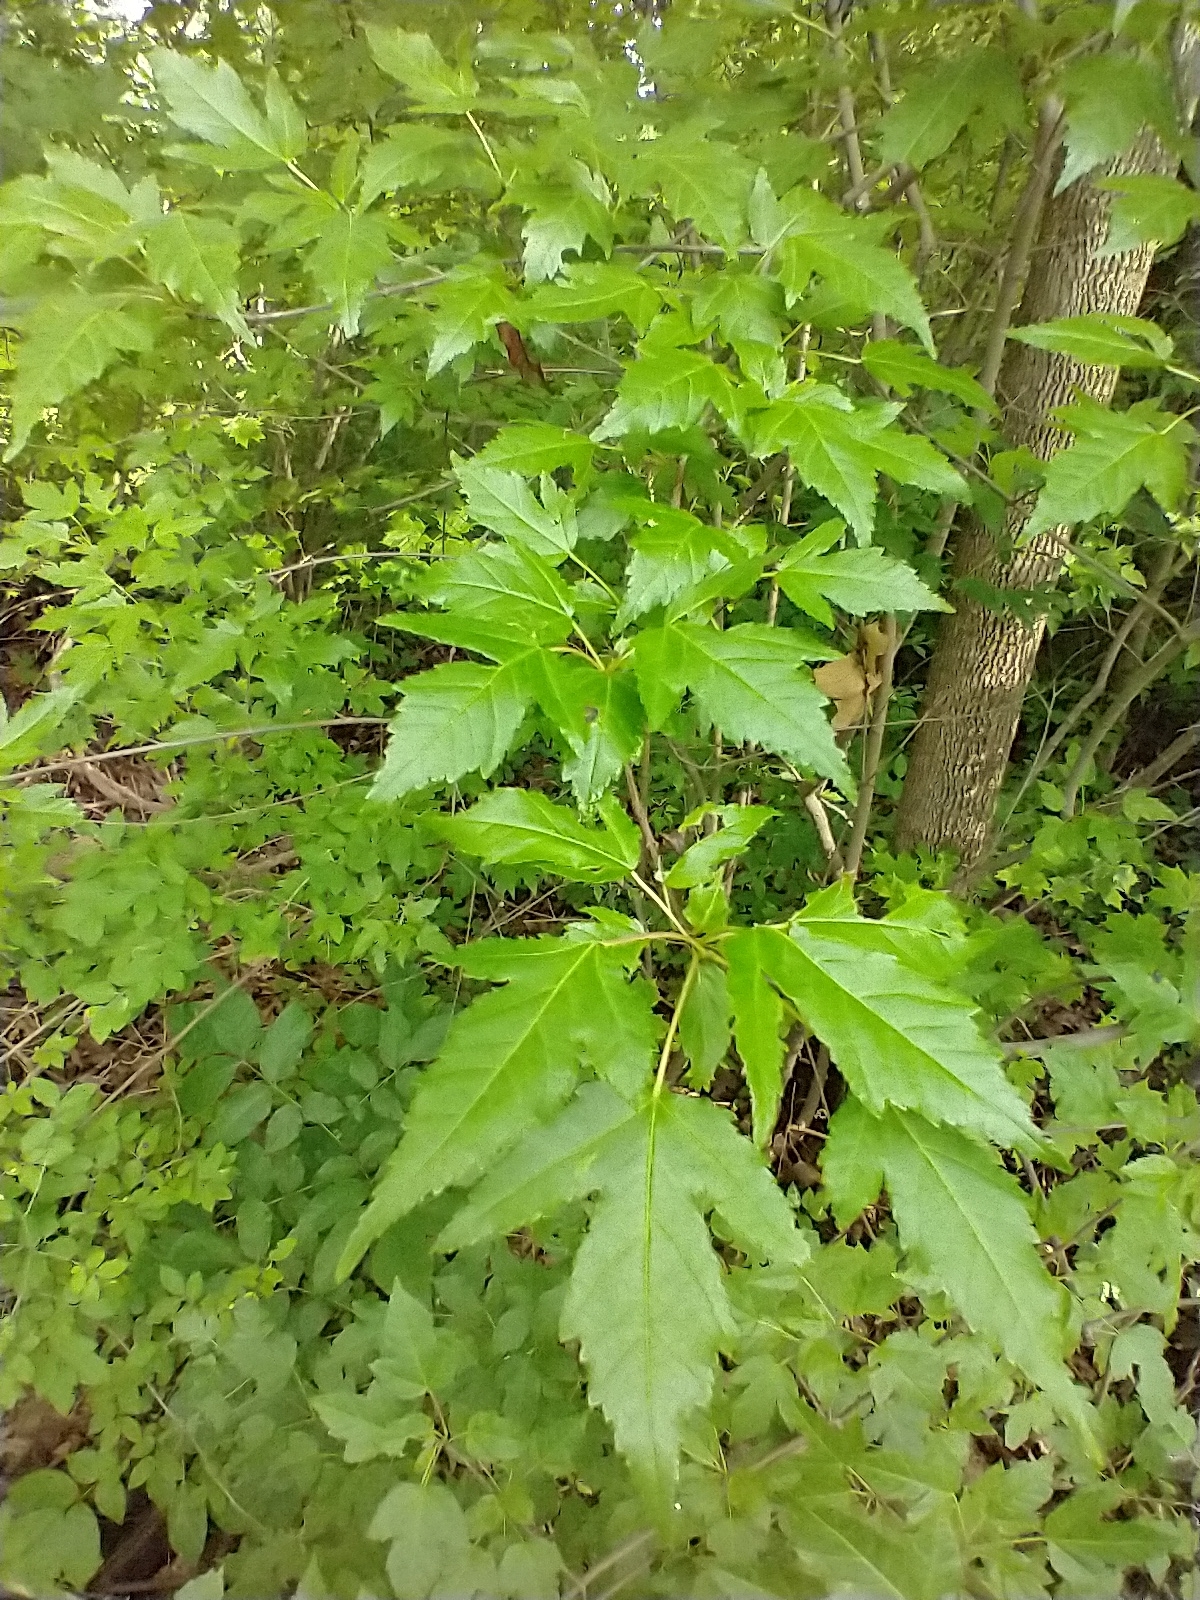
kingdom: Plantae
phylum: Tracheophyta
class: Magnoliopsida
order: Sapindales
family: Sapindaceae
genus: Acer
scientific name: Acer tataricum
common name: Tartar maple
